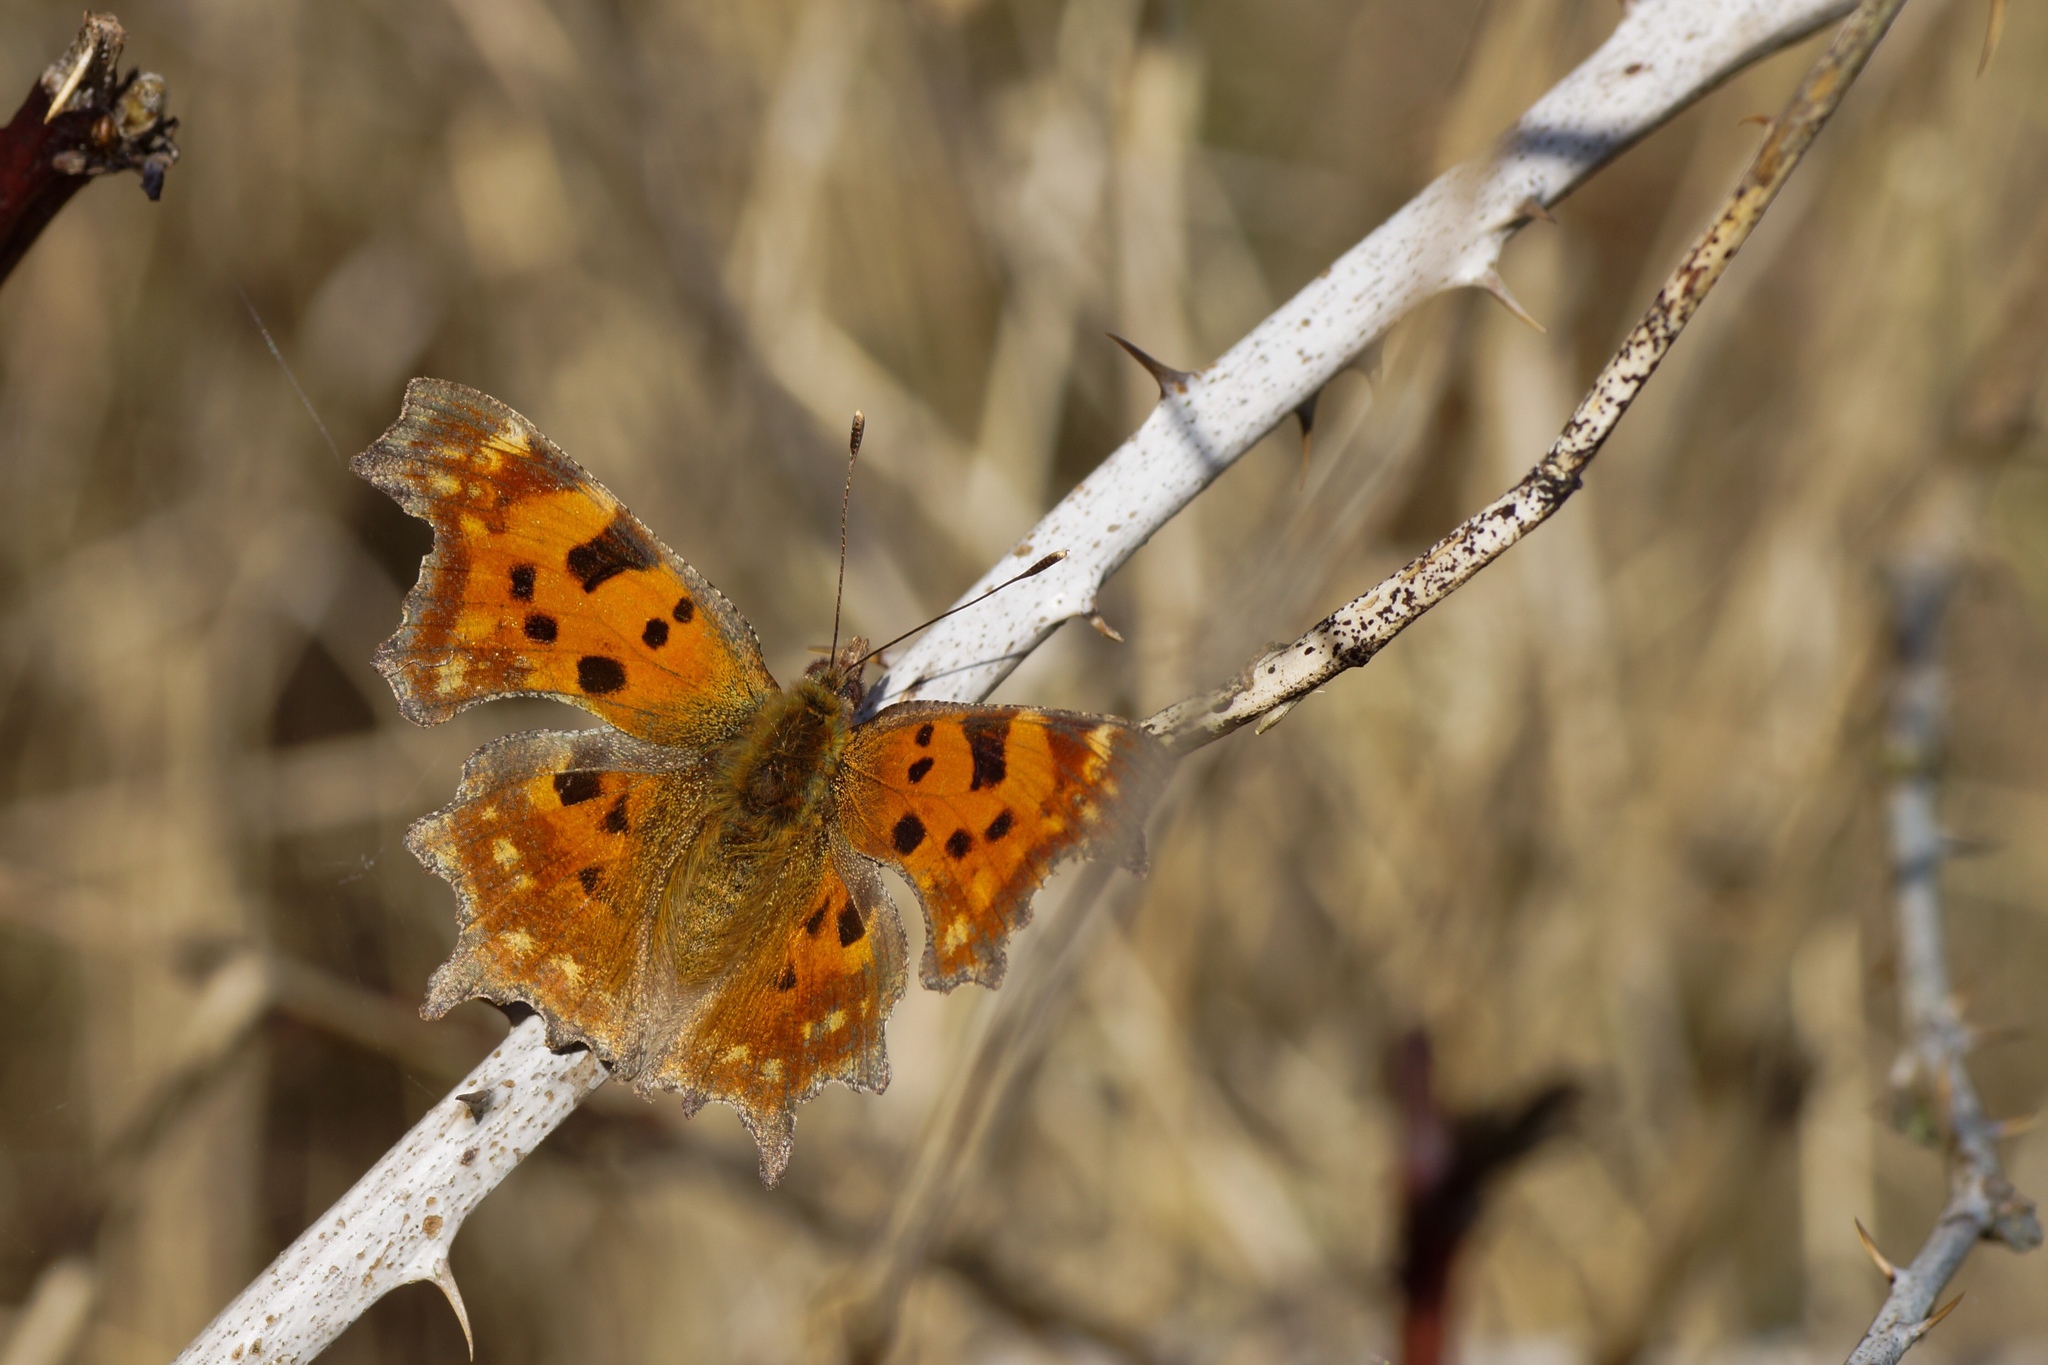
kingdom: Animalia
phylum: Arthropoda
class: Insecta
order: Lepidoptera
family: Nymphalidae
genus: Polygonia
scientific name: Polygonia c-album
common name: Comma
